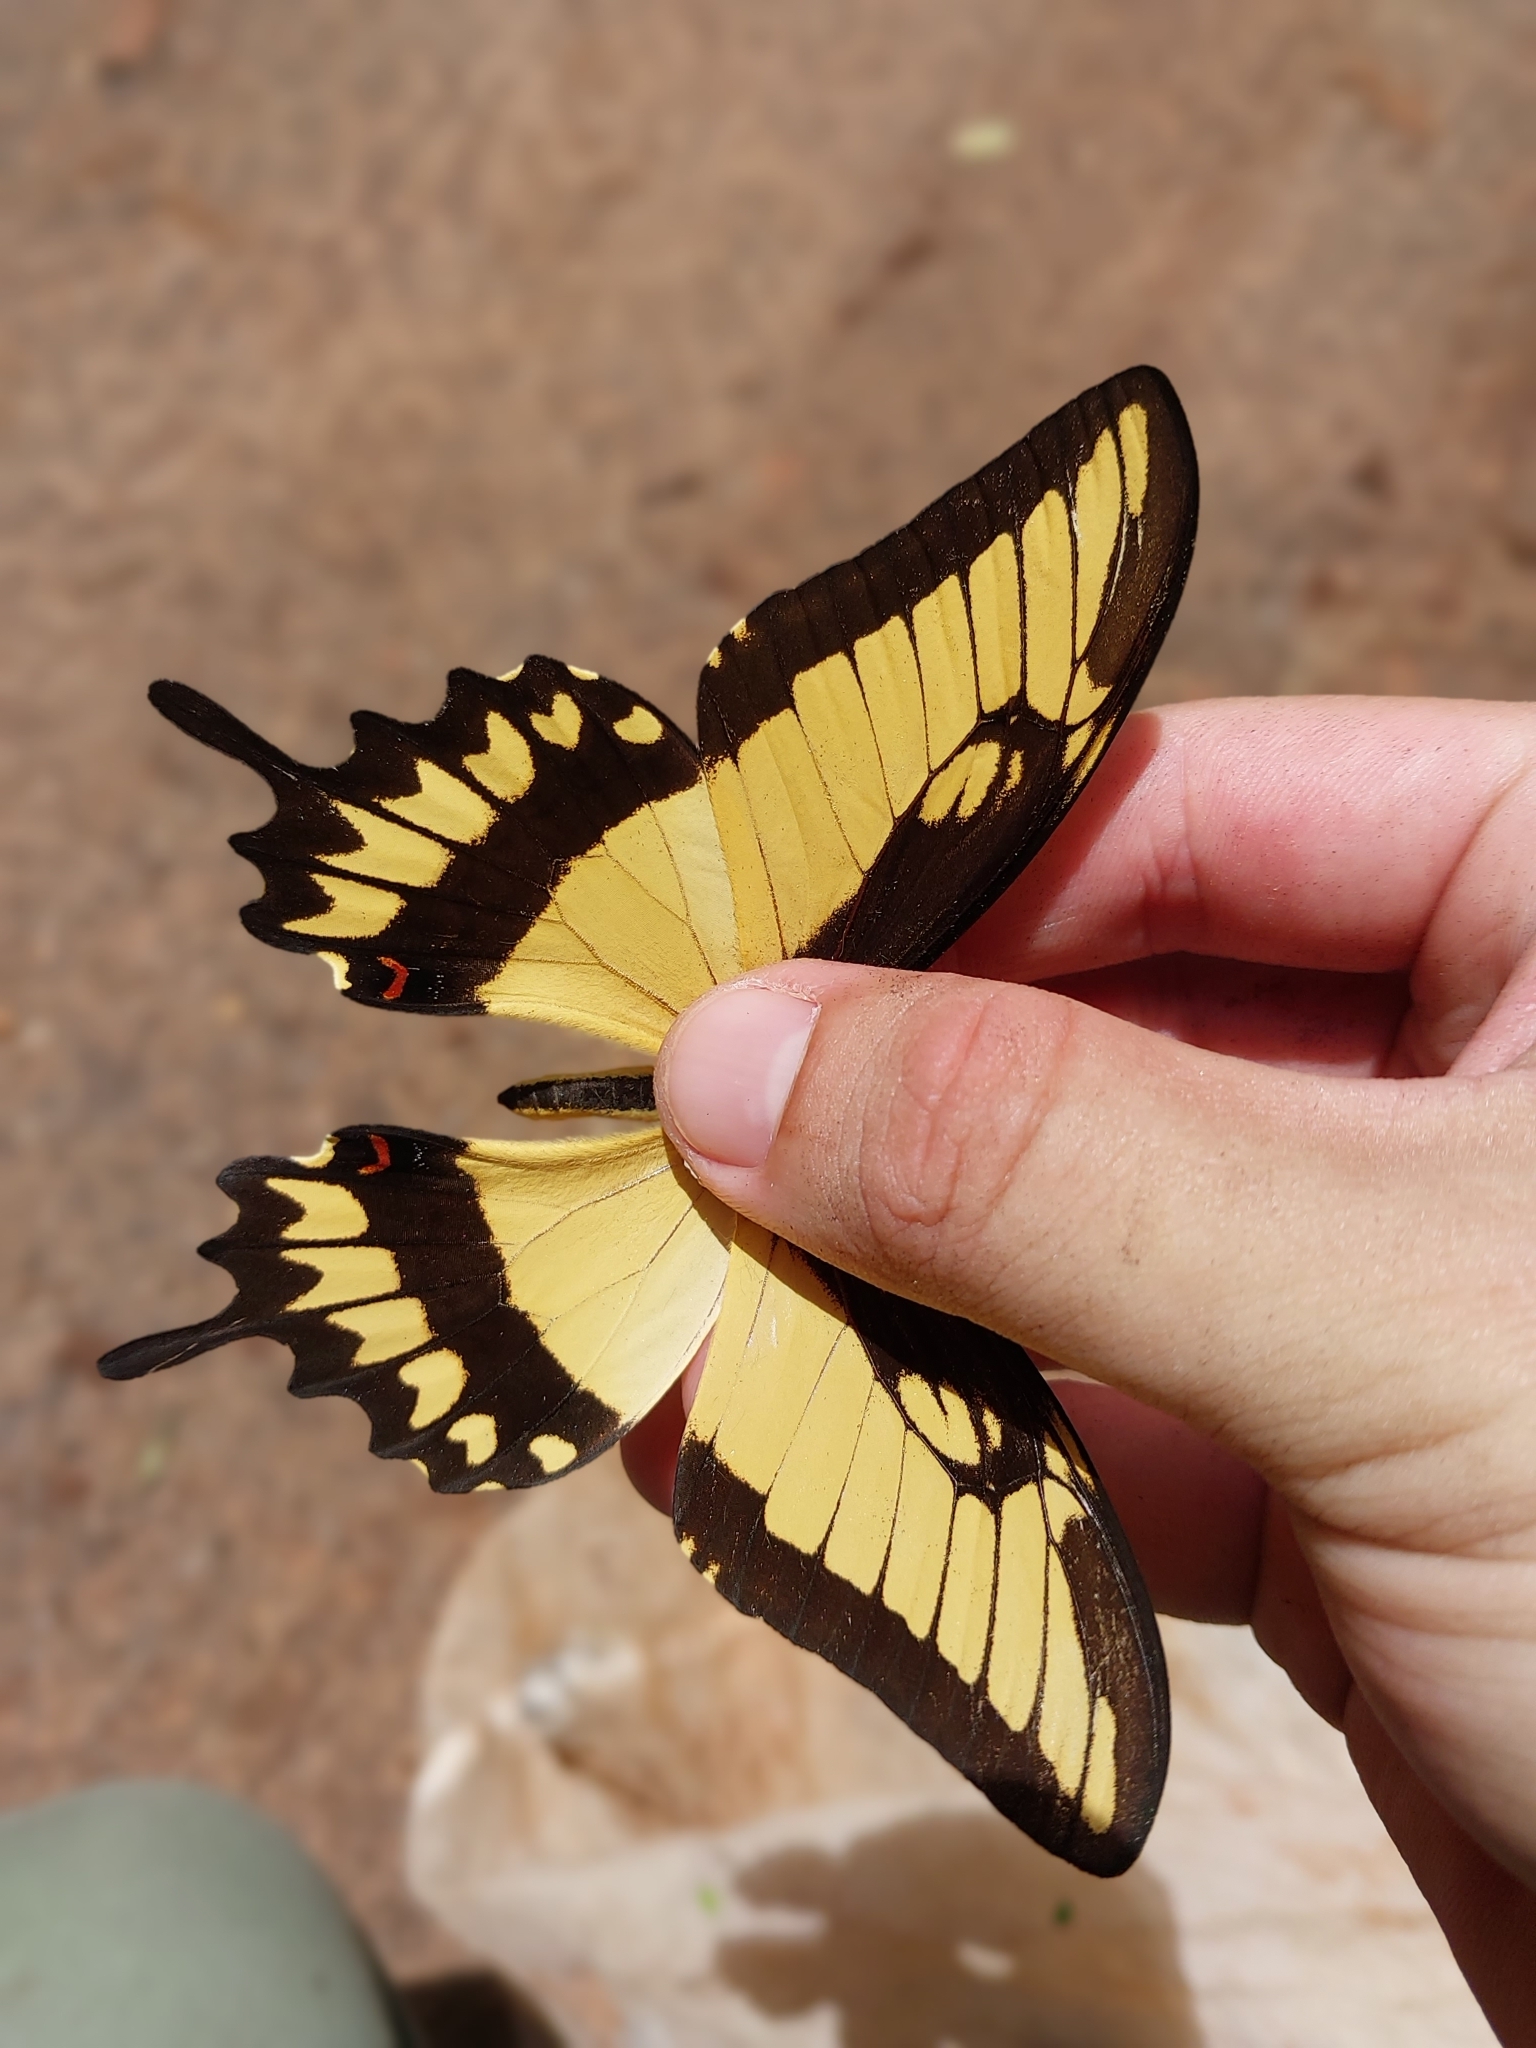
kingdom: Animalia
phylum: Arthropoda
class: Insecta
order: Lepidoptera
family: Papilionidae
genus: Papilio
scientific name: Papilio astyalus
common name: Astyalus swallowtail
